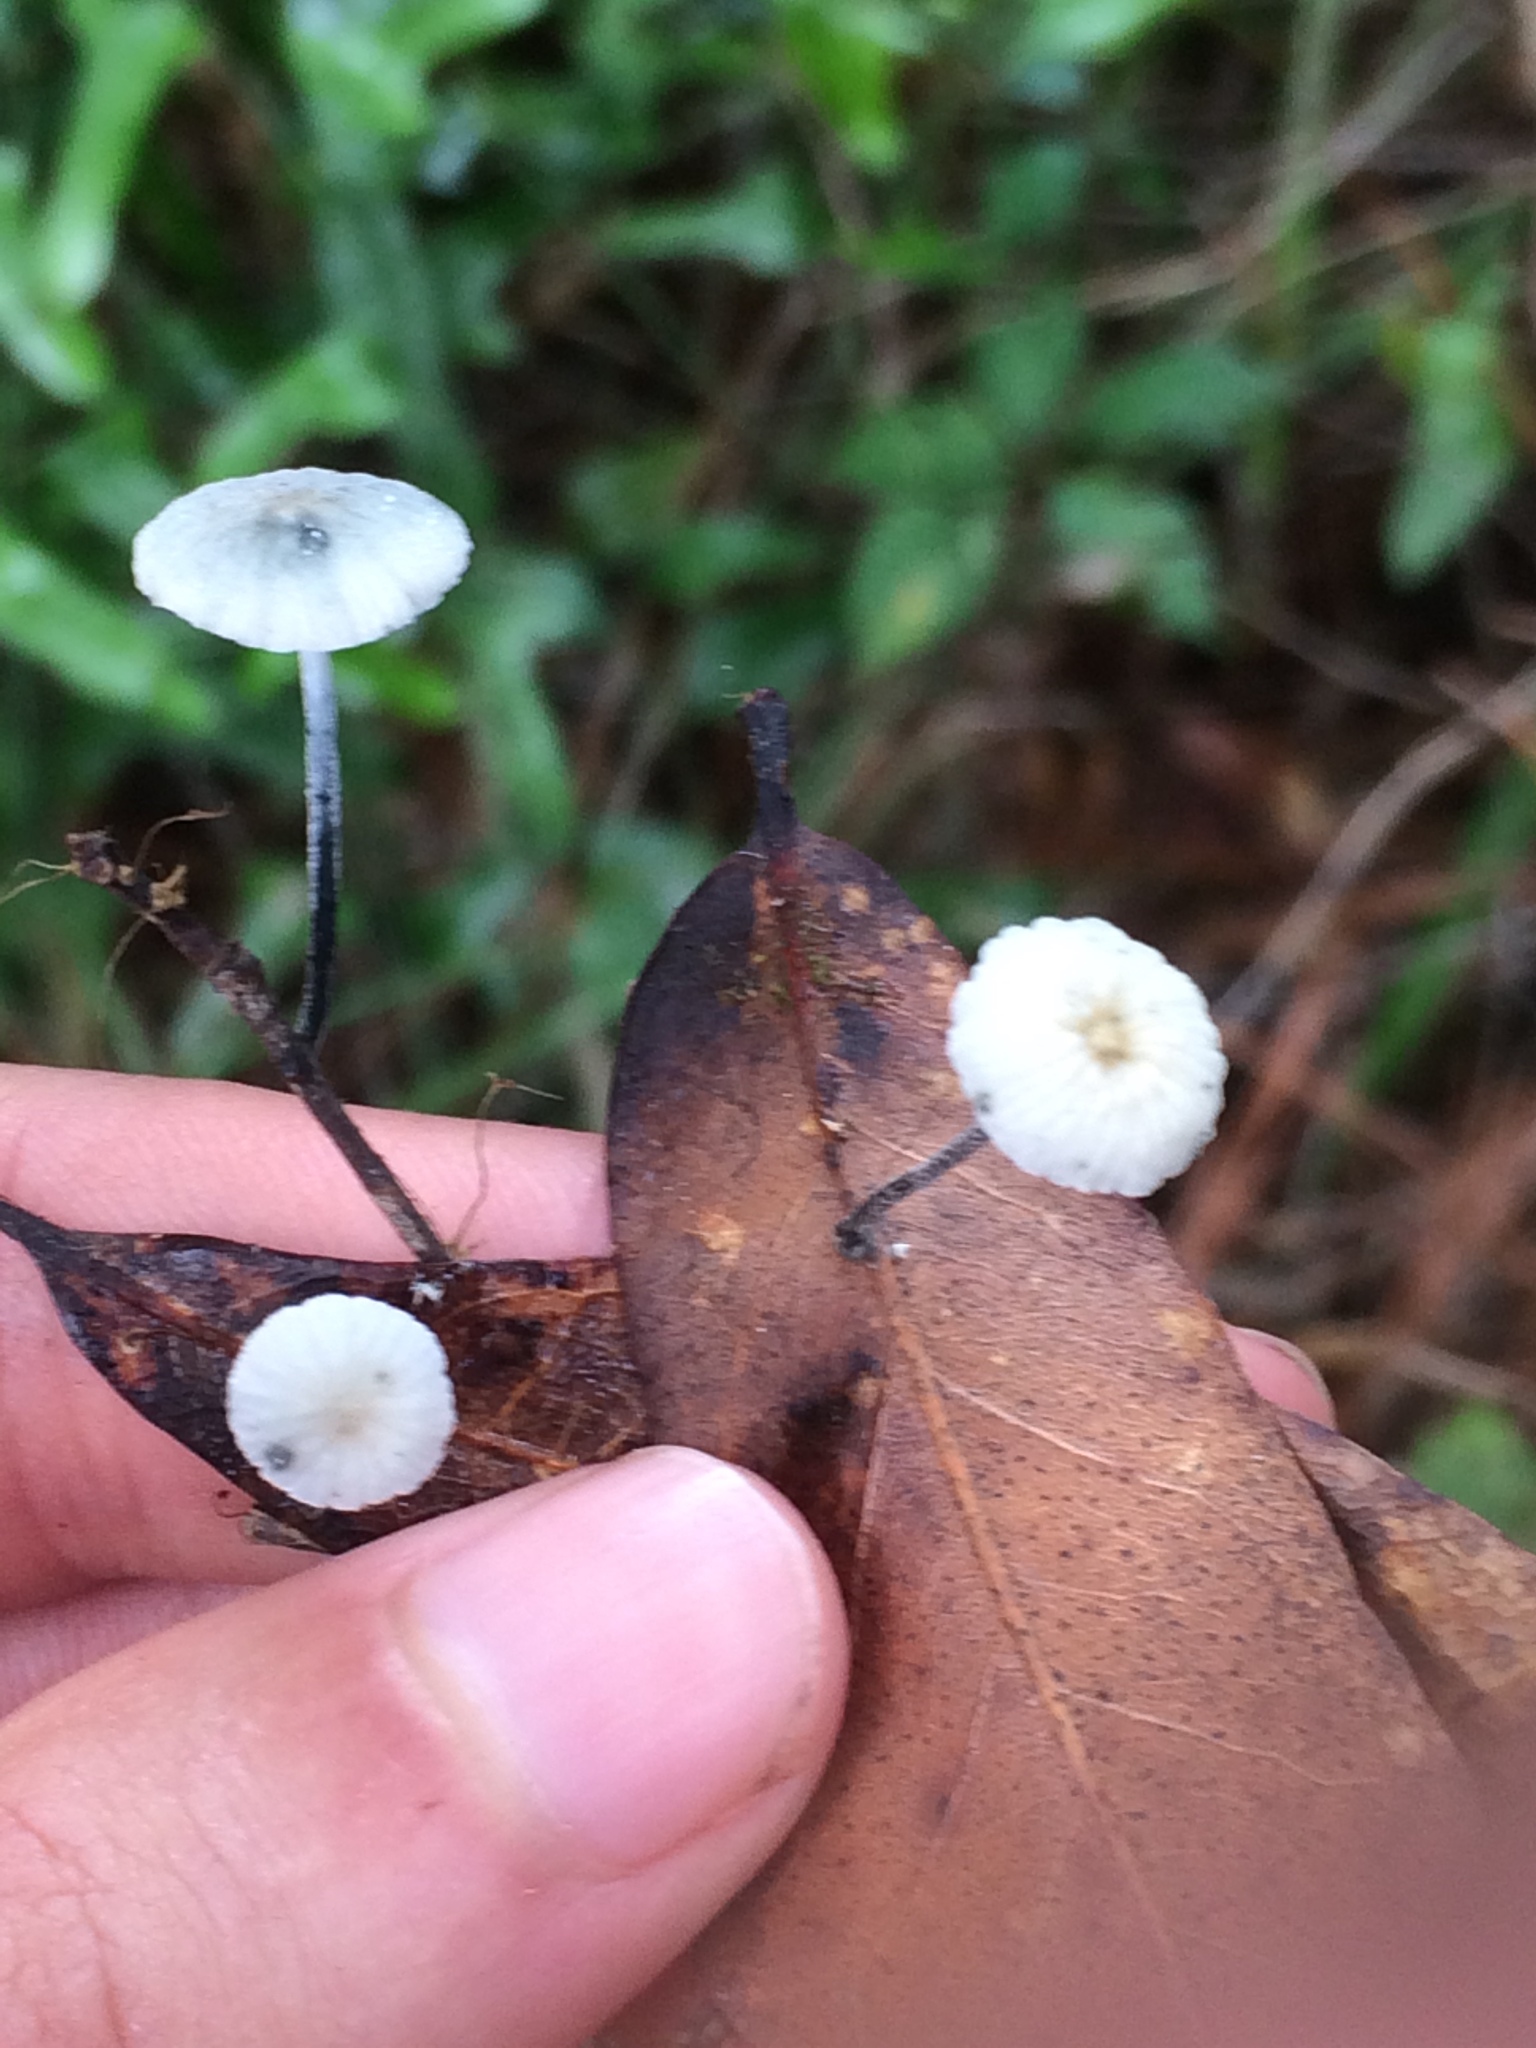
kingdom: Fungi
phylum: Basidiomycota
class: Agaricomycetes
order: Agaricales
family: Marasmiaceae
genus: Tetrapyrgos
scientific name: Tetrapyrgos nigripes
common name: Black-stalked marasmius
